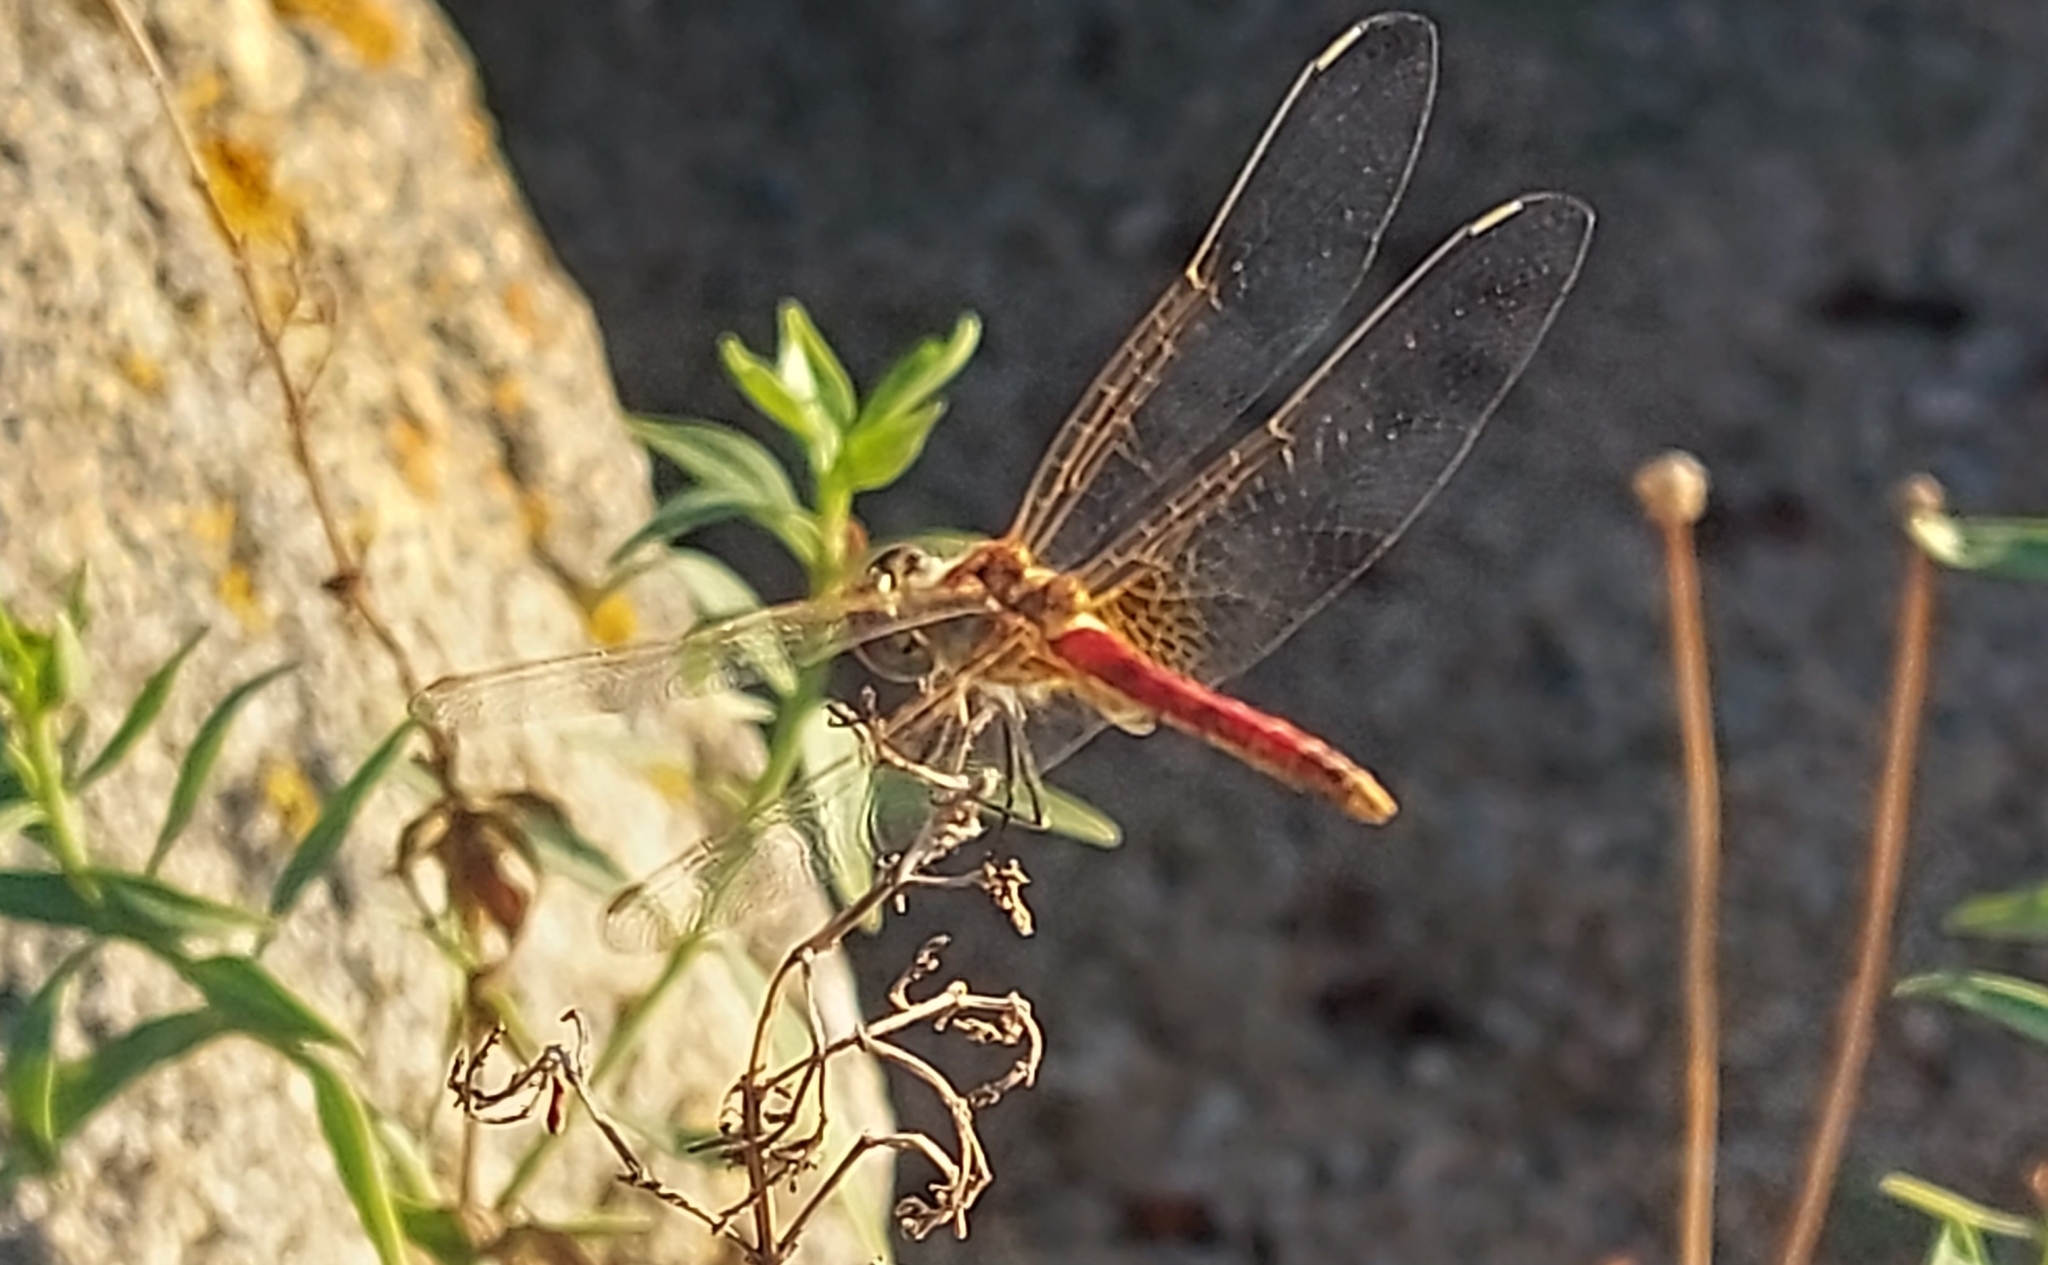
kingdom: Animalia
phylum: Arthropoda
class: Insecta
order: Odonata
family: Libellulidae
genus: Sympetrum
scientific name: Sympetrum fonscolombii
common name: Red-veined darter
